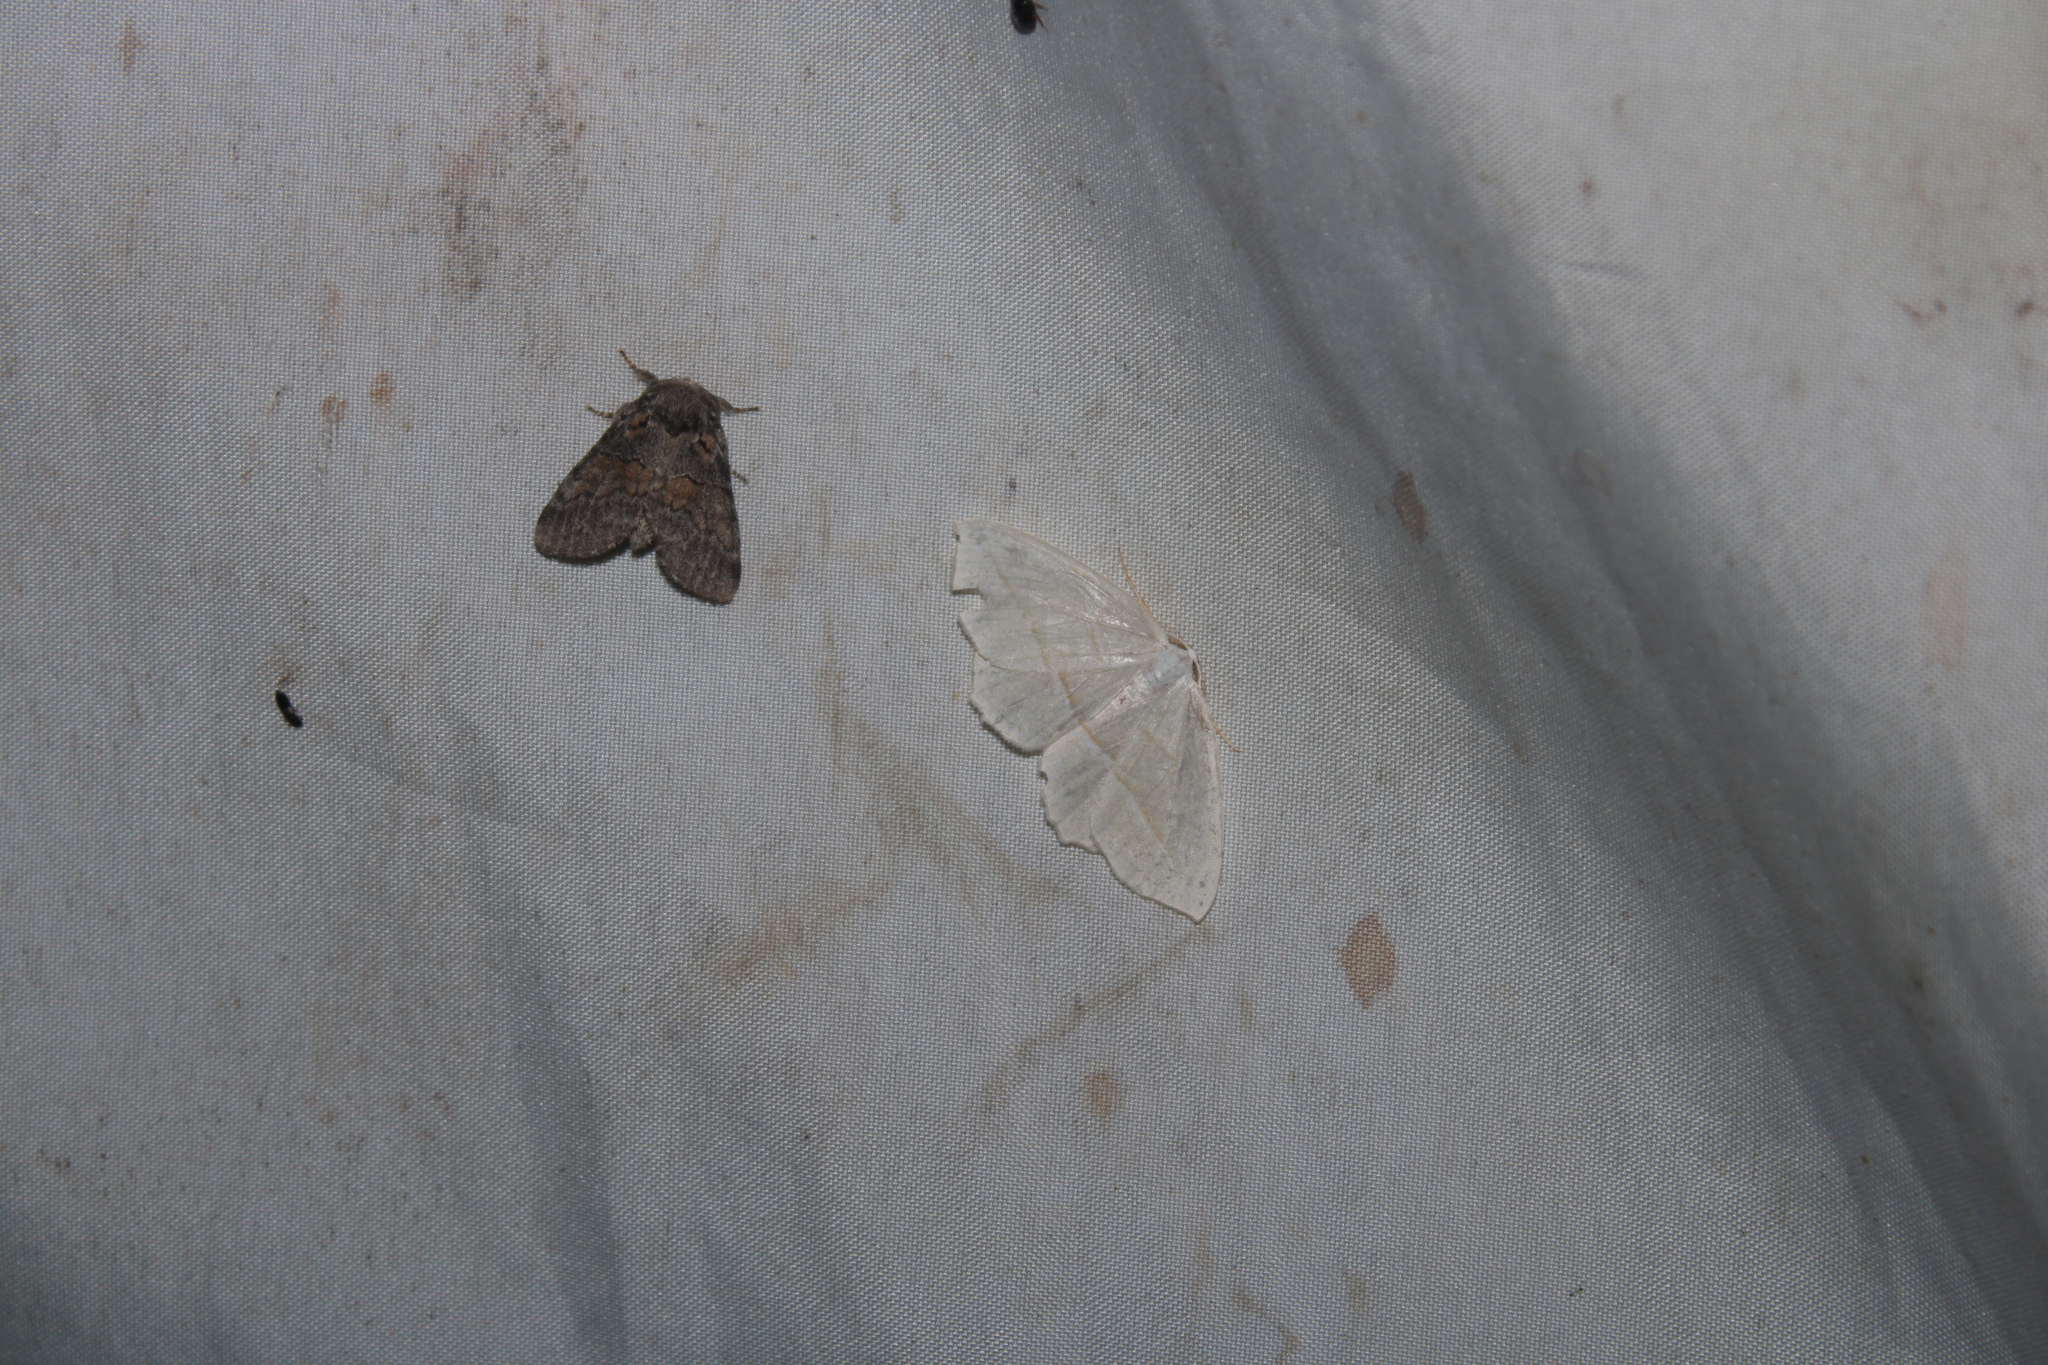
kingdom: Animalia
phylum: Arthropoda
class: Insecta
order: Lepidoptera
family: Geometridae
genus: Campaea
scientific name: Campaea perlata
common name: Fringed looper
